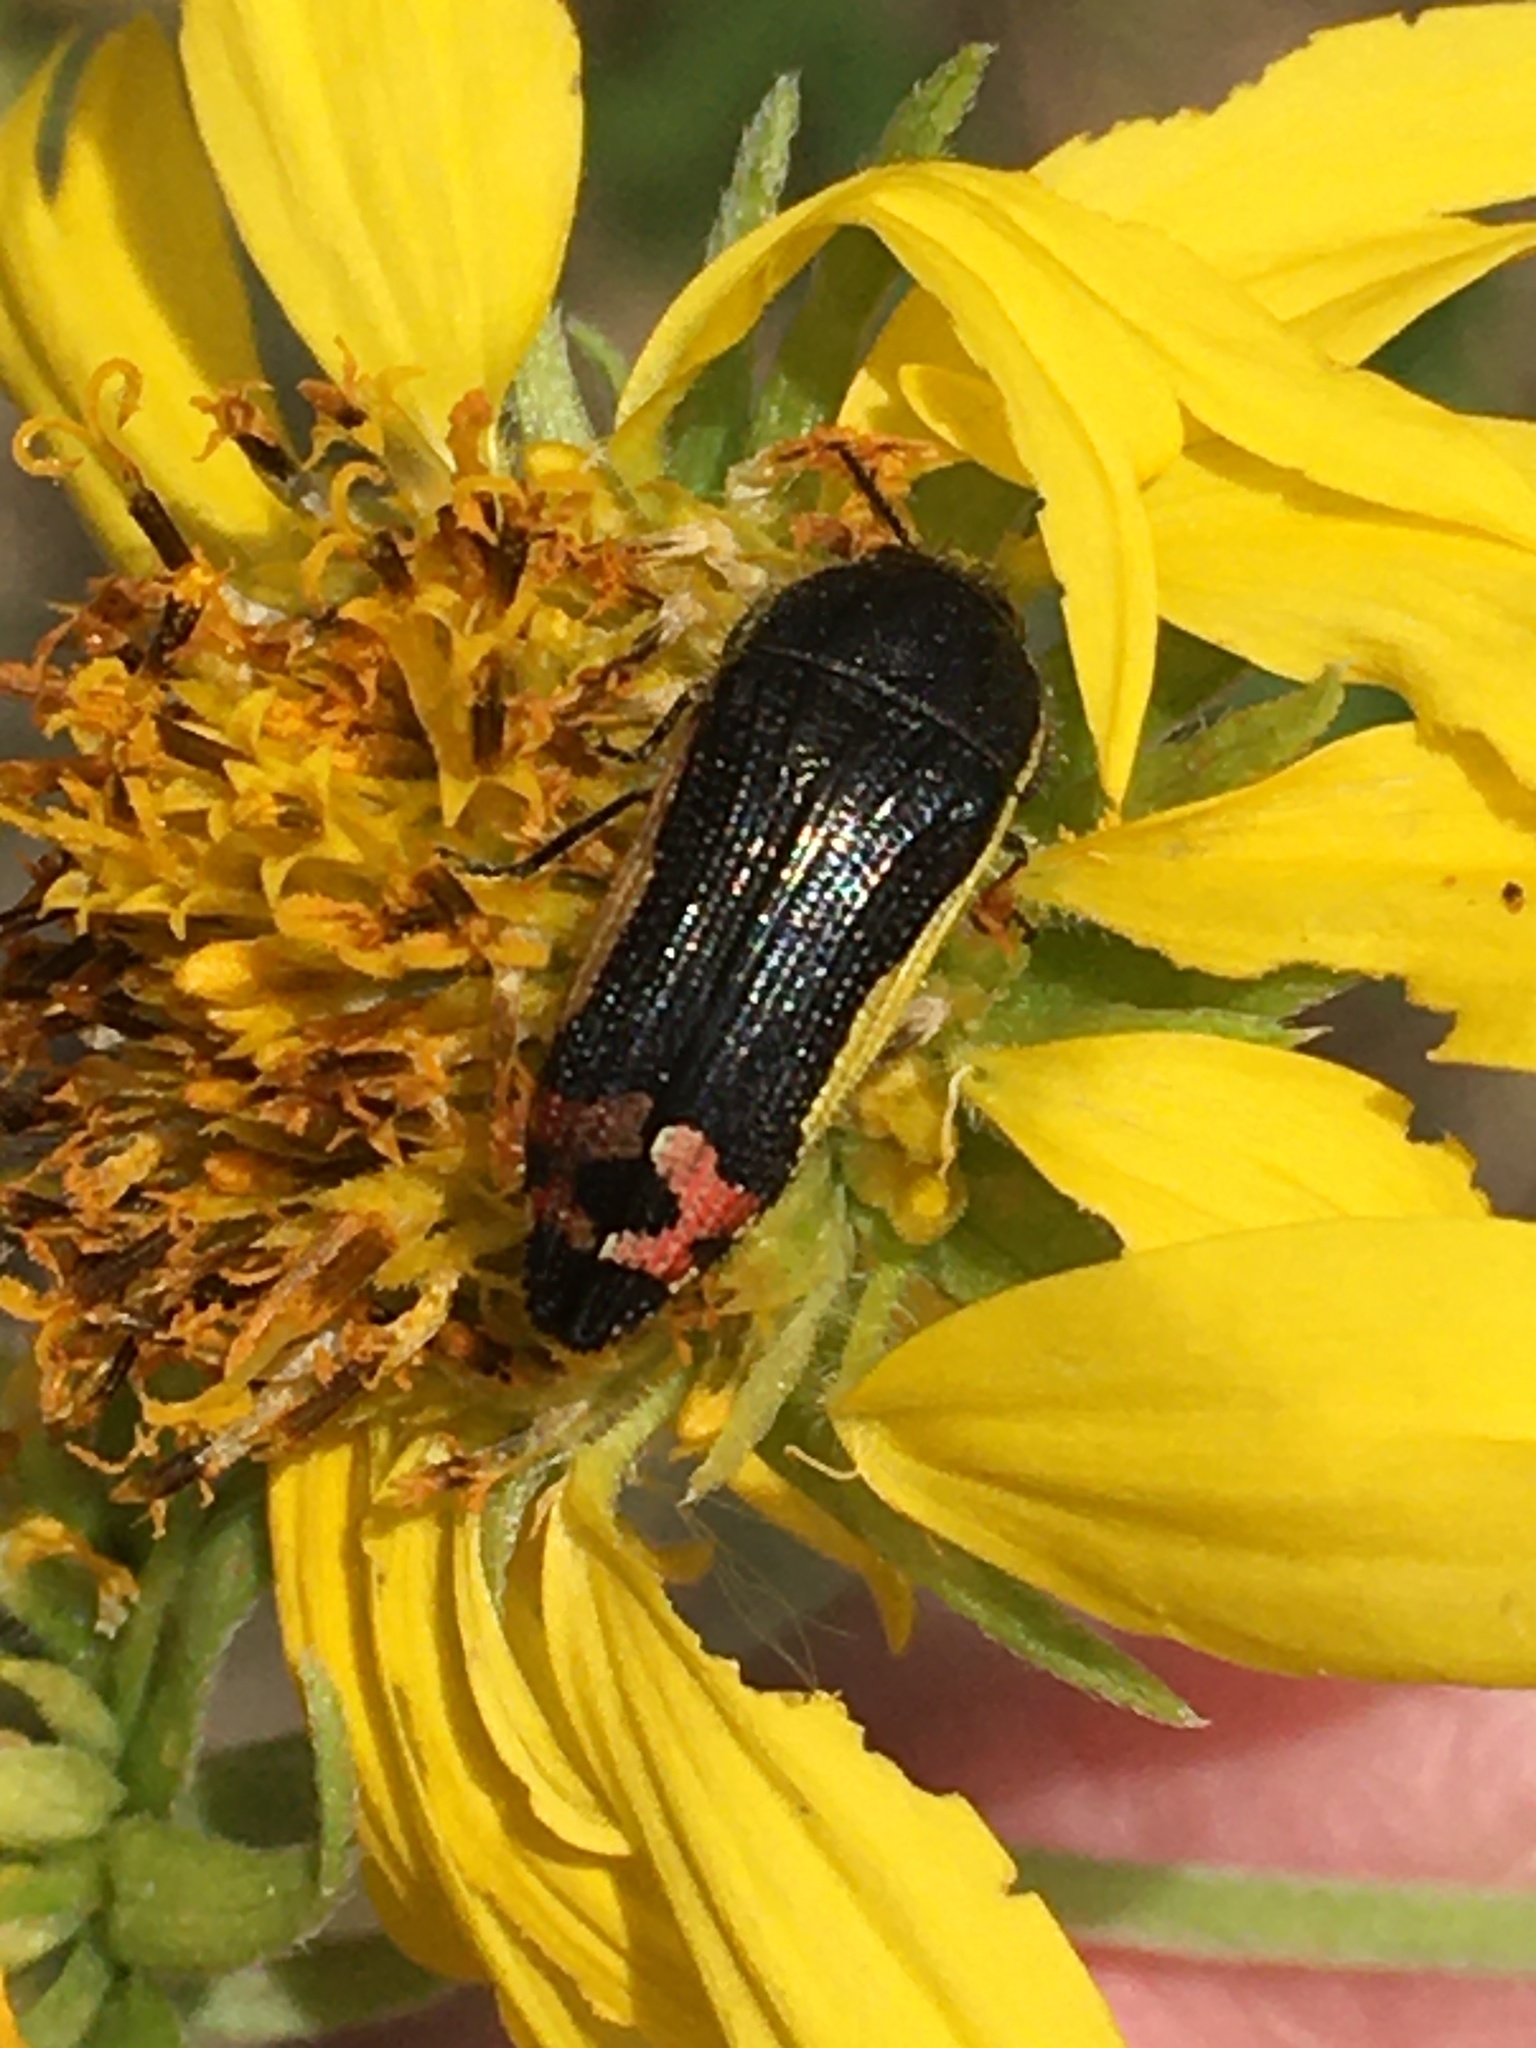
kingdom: Animalia
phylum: Arthropoda
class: Insecta
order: Coleoptera
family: Buprestidae
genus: Acmaeodera
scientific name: Acmaeodera flavomarginata
